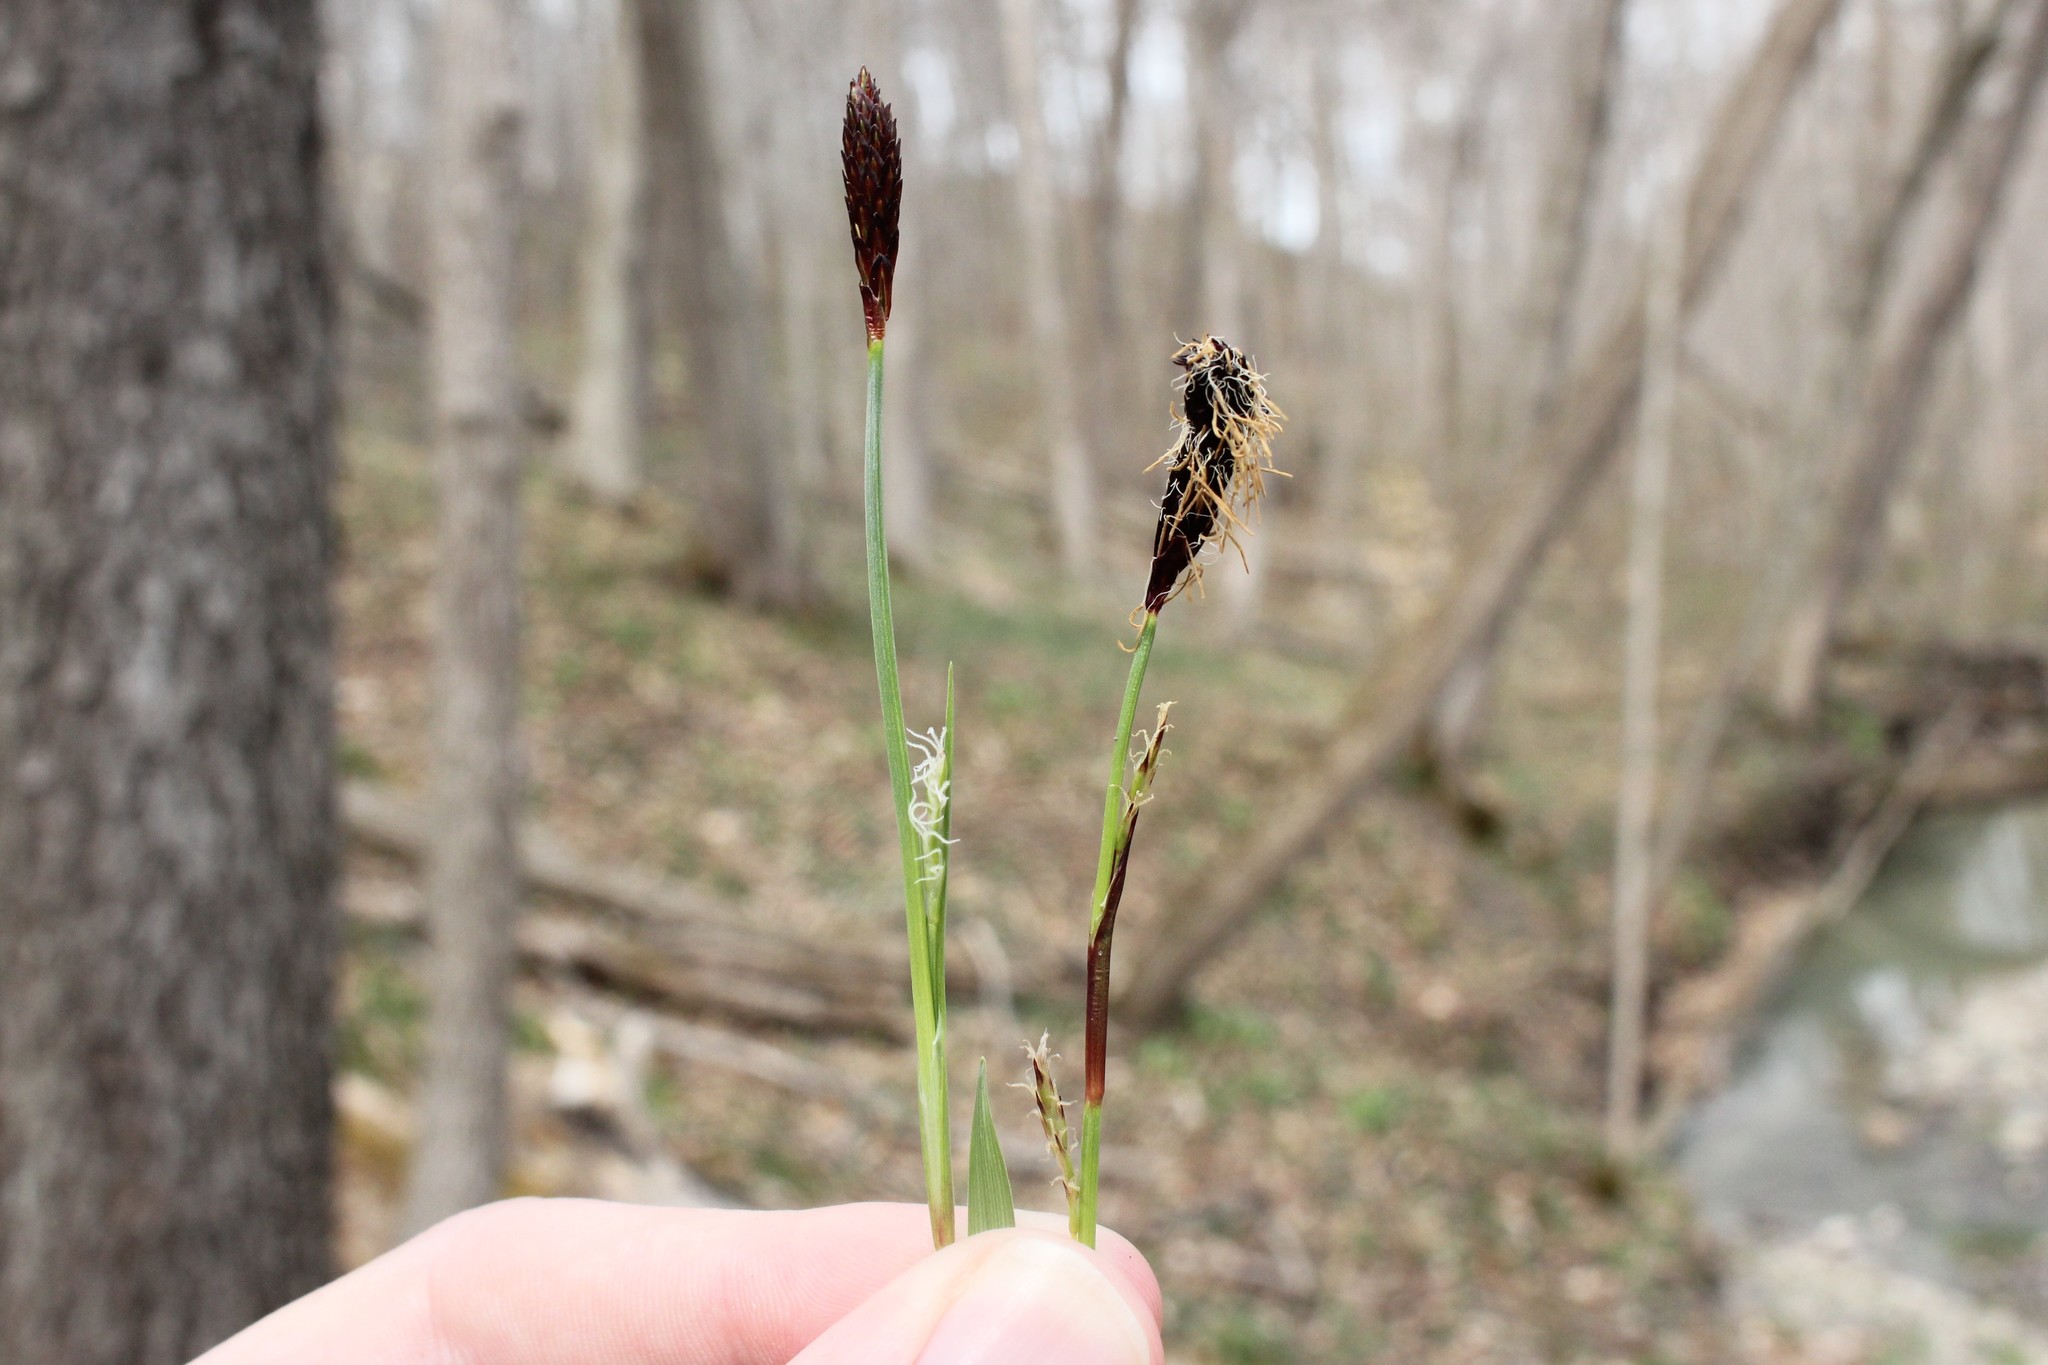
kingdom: Plantae
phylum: Tracheophyta
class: Liliopsida
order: Poales
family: Cyperaceae
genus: Carex
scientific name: Carex careyana
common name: Carey's sedge
